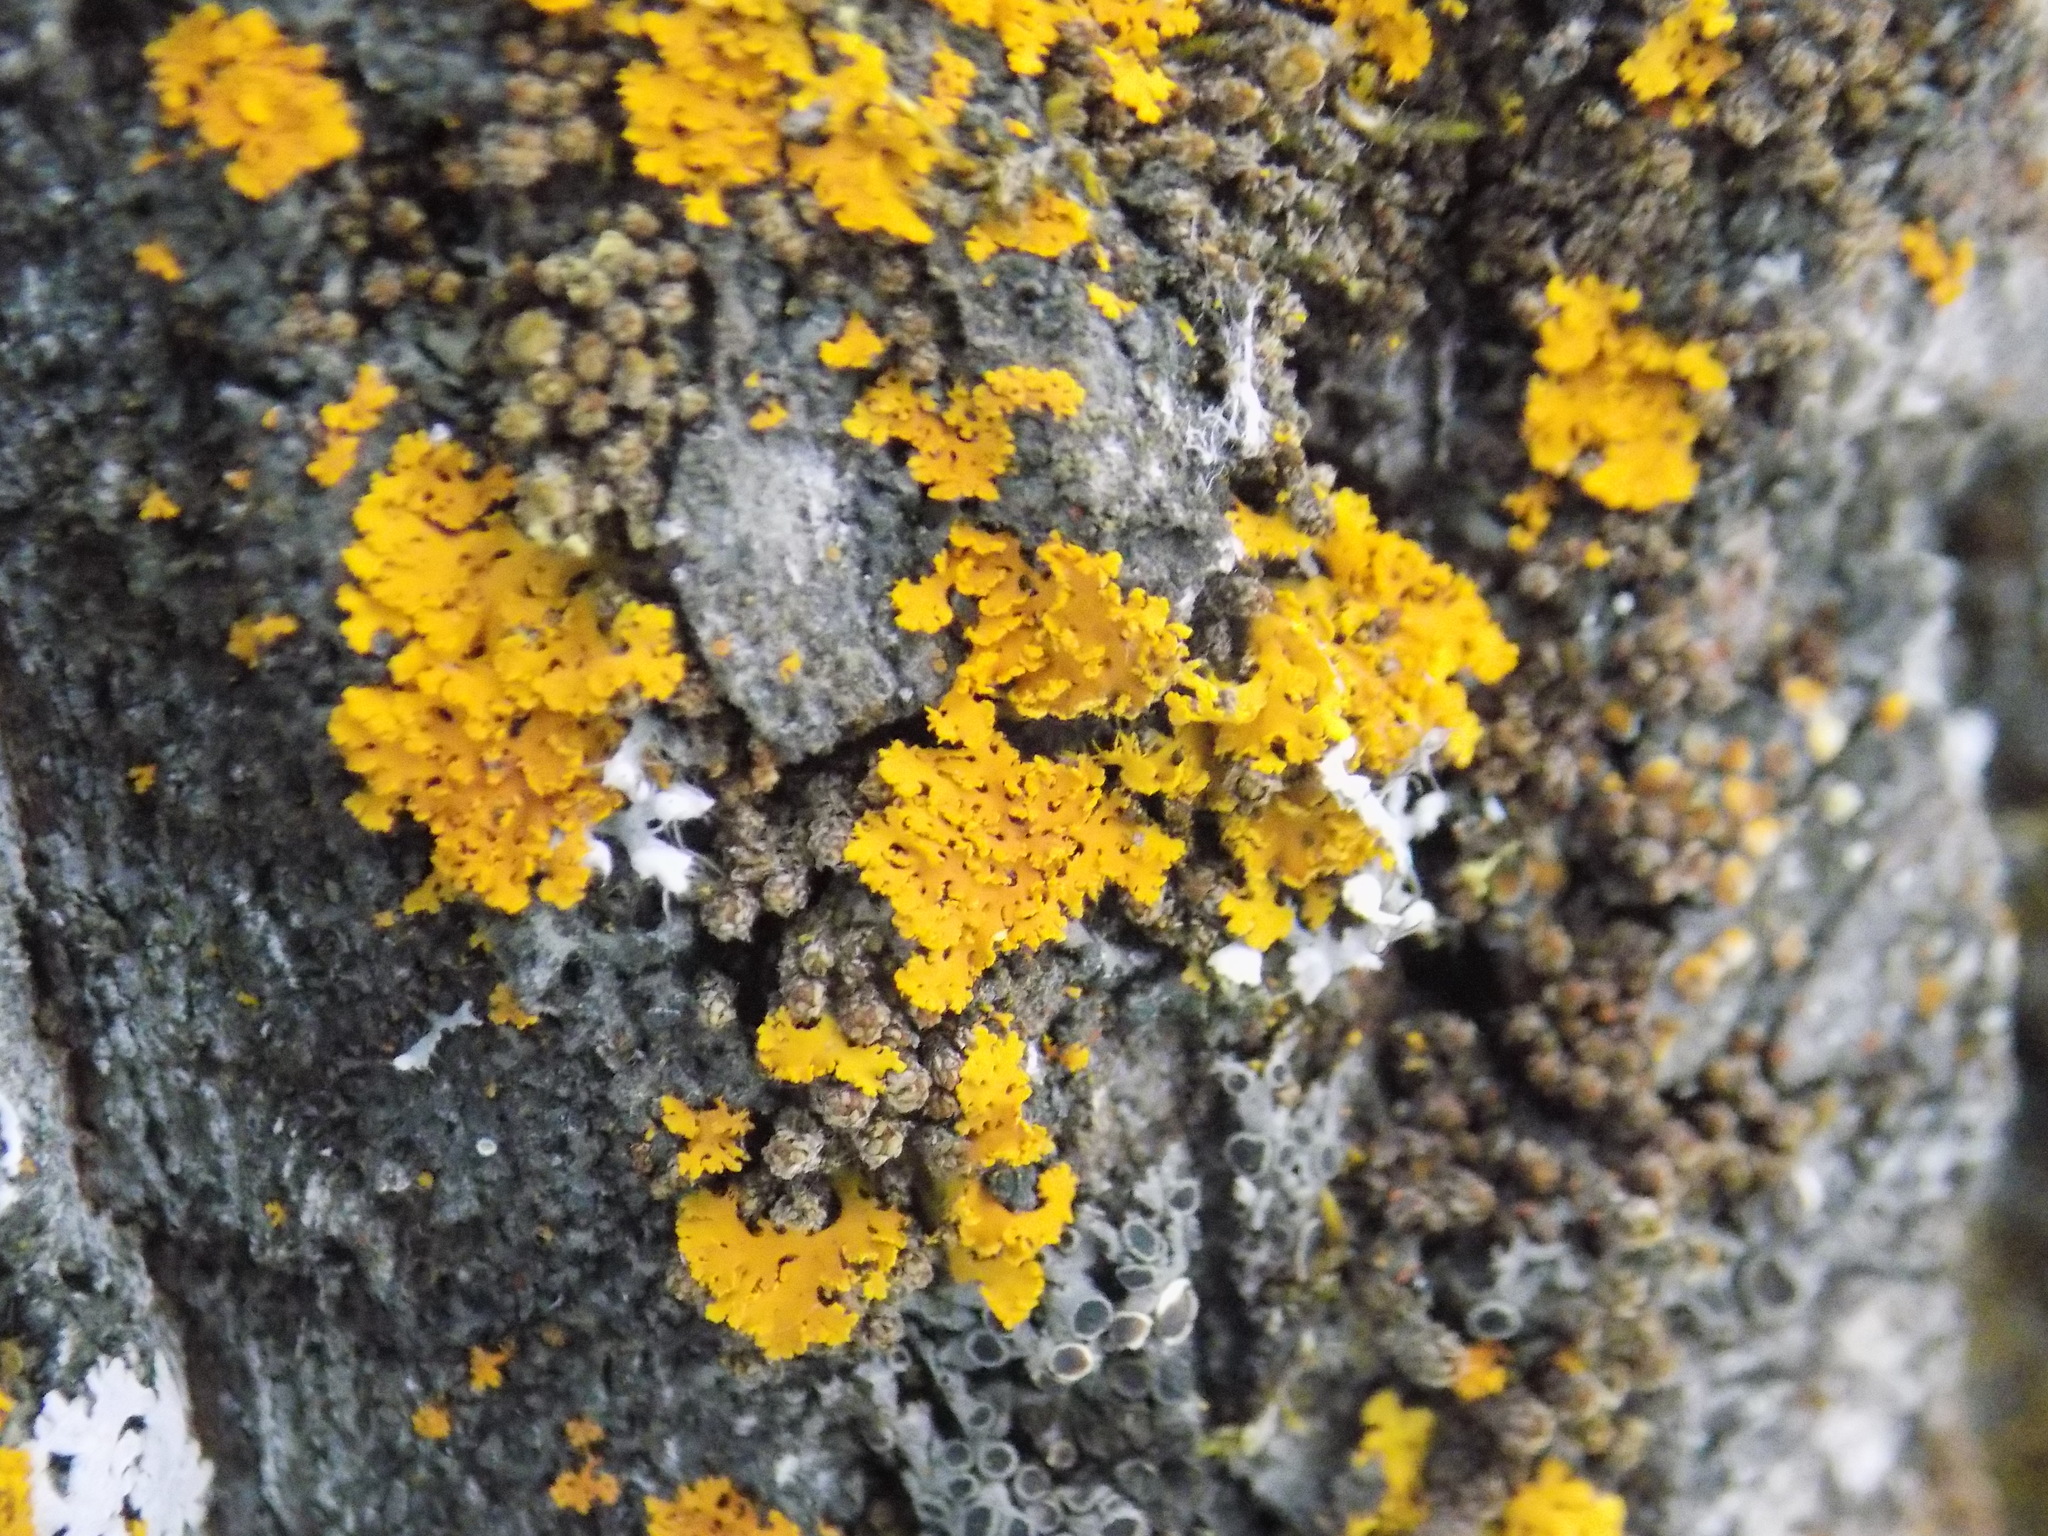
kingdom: Fungi
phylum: Ascomycota
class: Lecanoromycetes
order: Teloschistales
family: Teloschistaceae
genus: Xanthoria
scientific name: Xanthoria ulophyllodes
